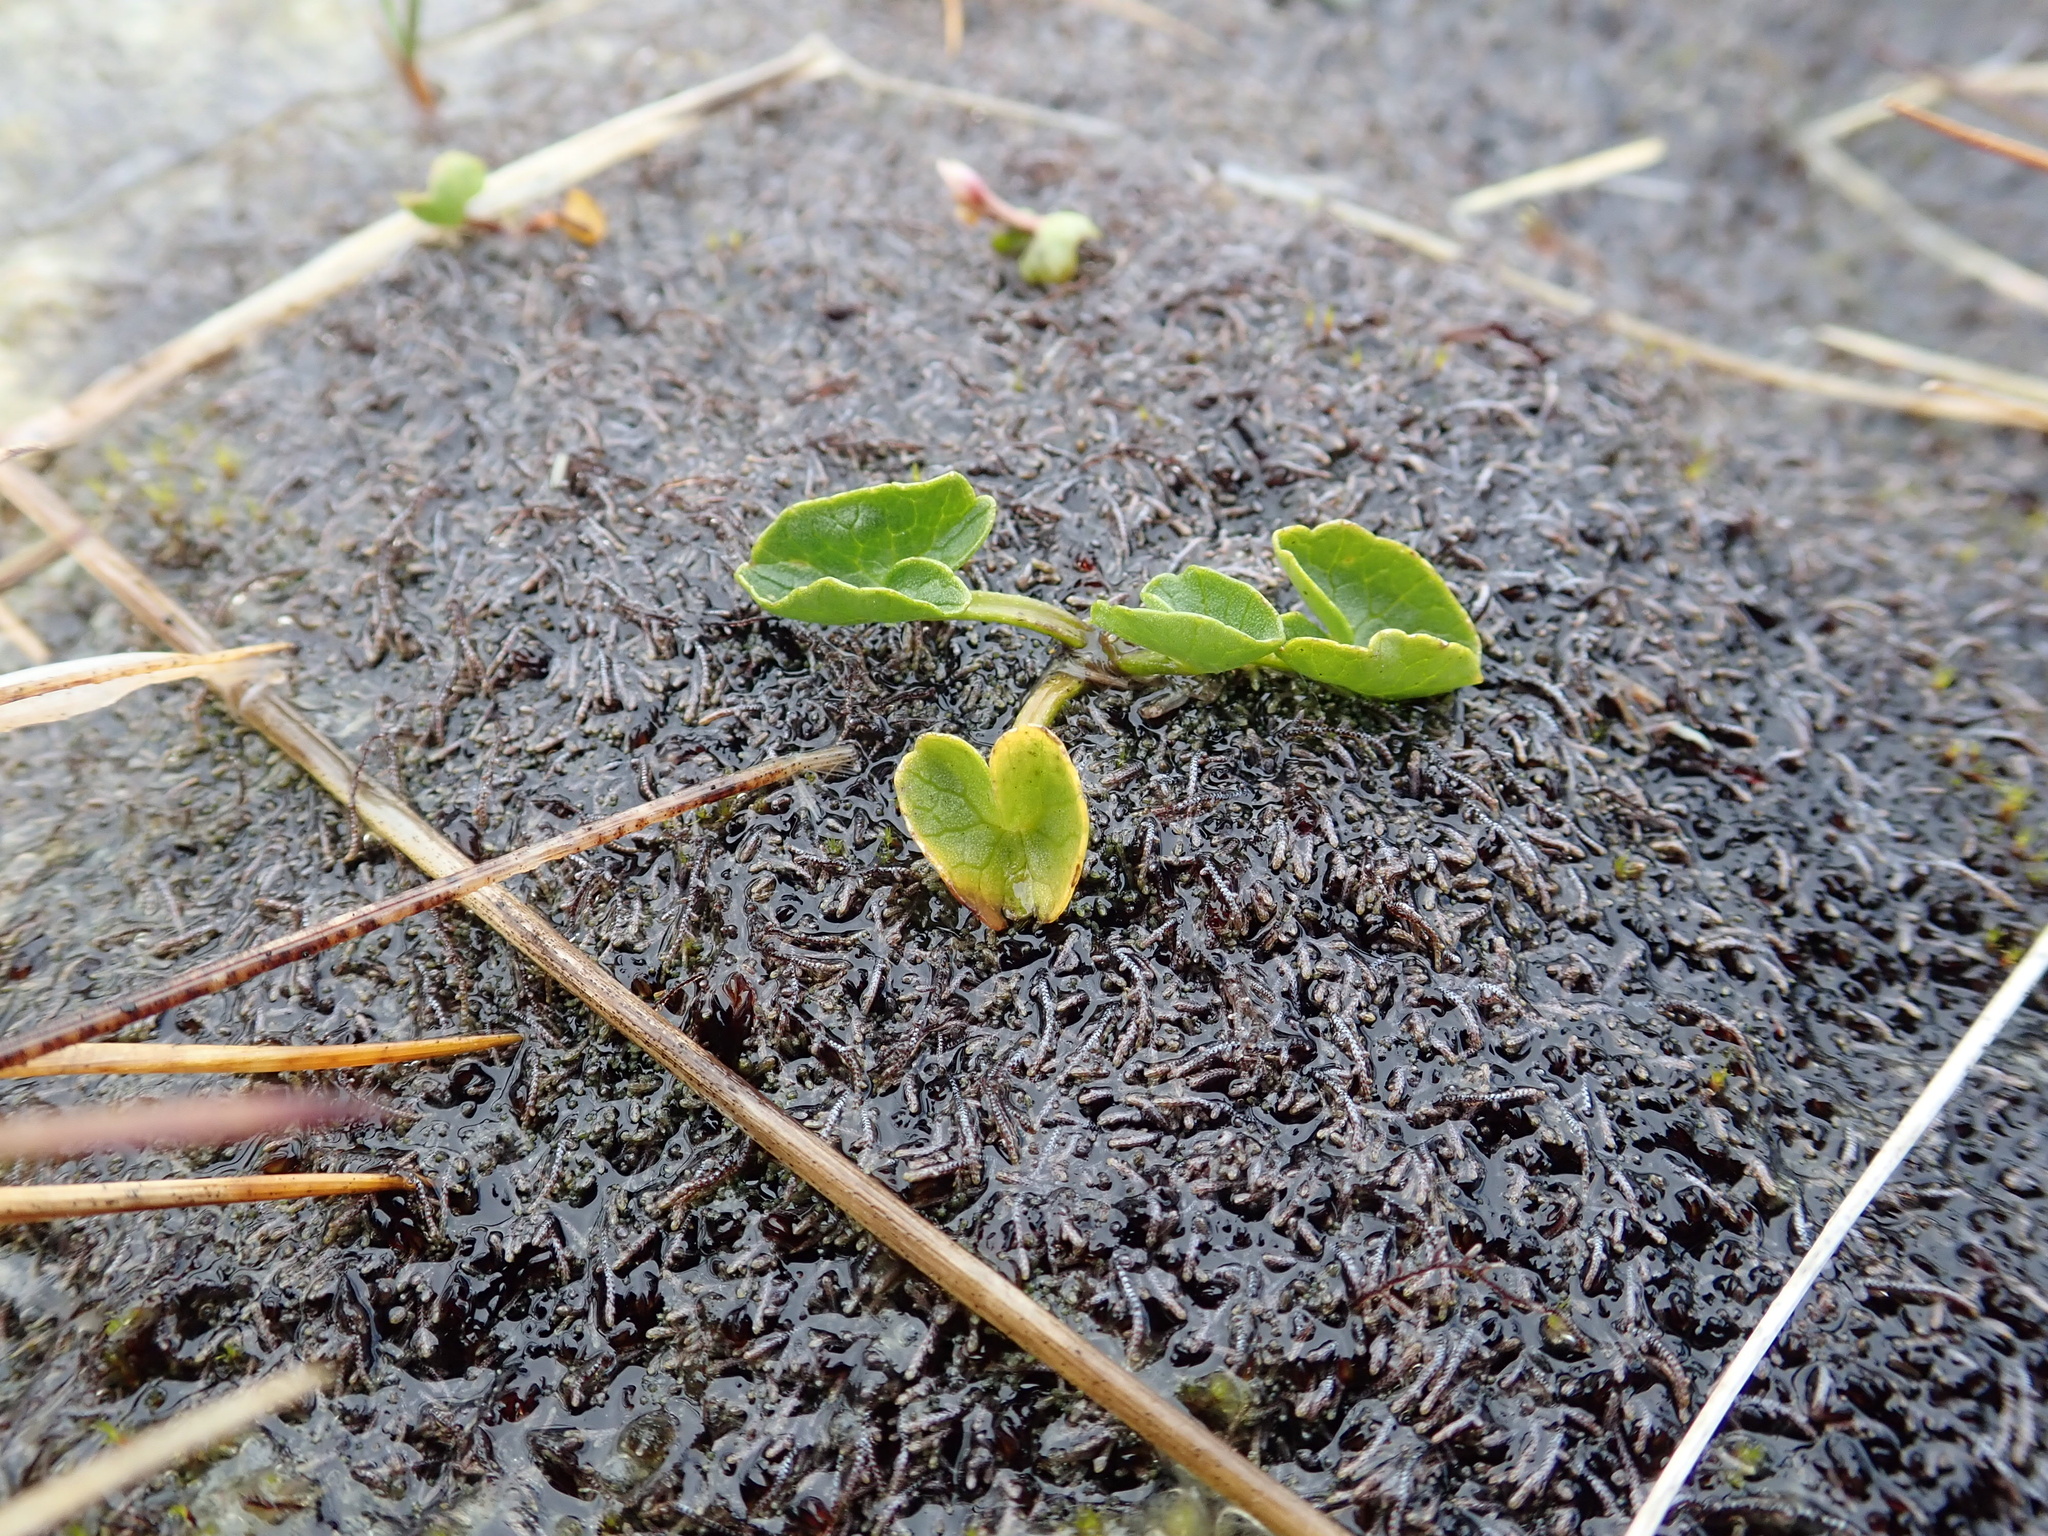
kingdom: Plantae
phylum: Tracheophyta
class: Magnoliopsida
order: Ranunculales
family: Ranunculaceae
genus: Caltha
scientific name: Caltha palustris
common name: Marsh marigold
